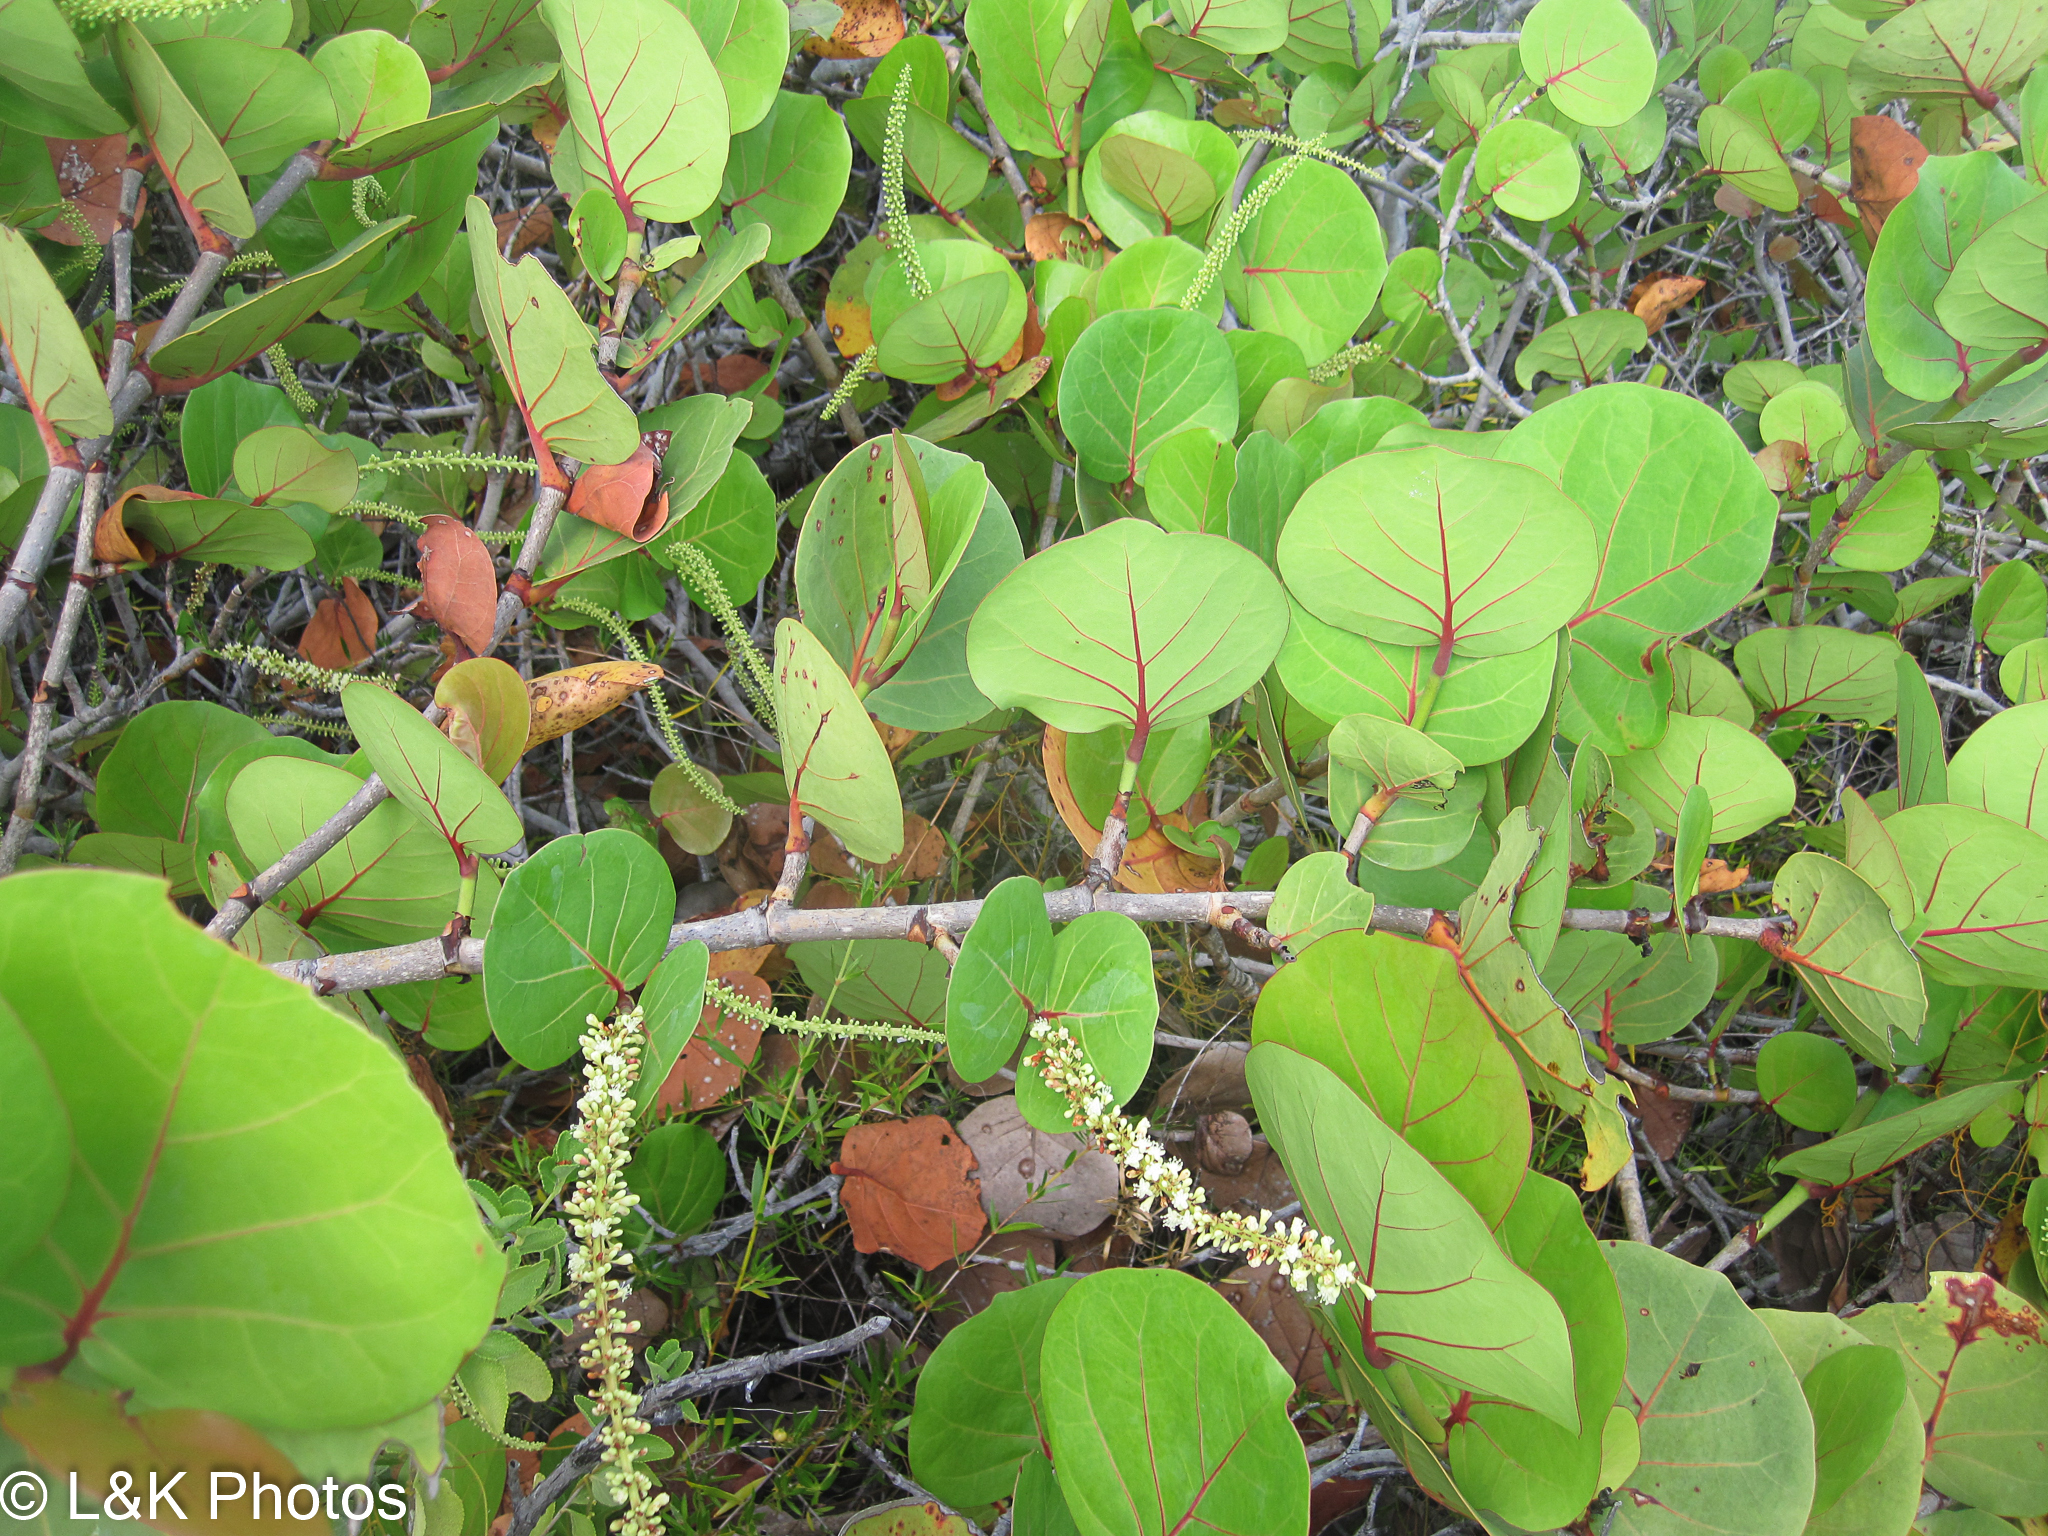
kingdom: Plantae
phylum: Tracheophyta
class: Magnoliopsida
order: Caryophyllales
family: Polygonaceae
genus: Coccoloba
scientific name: Coccoloba uvifera
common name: Seagrape
